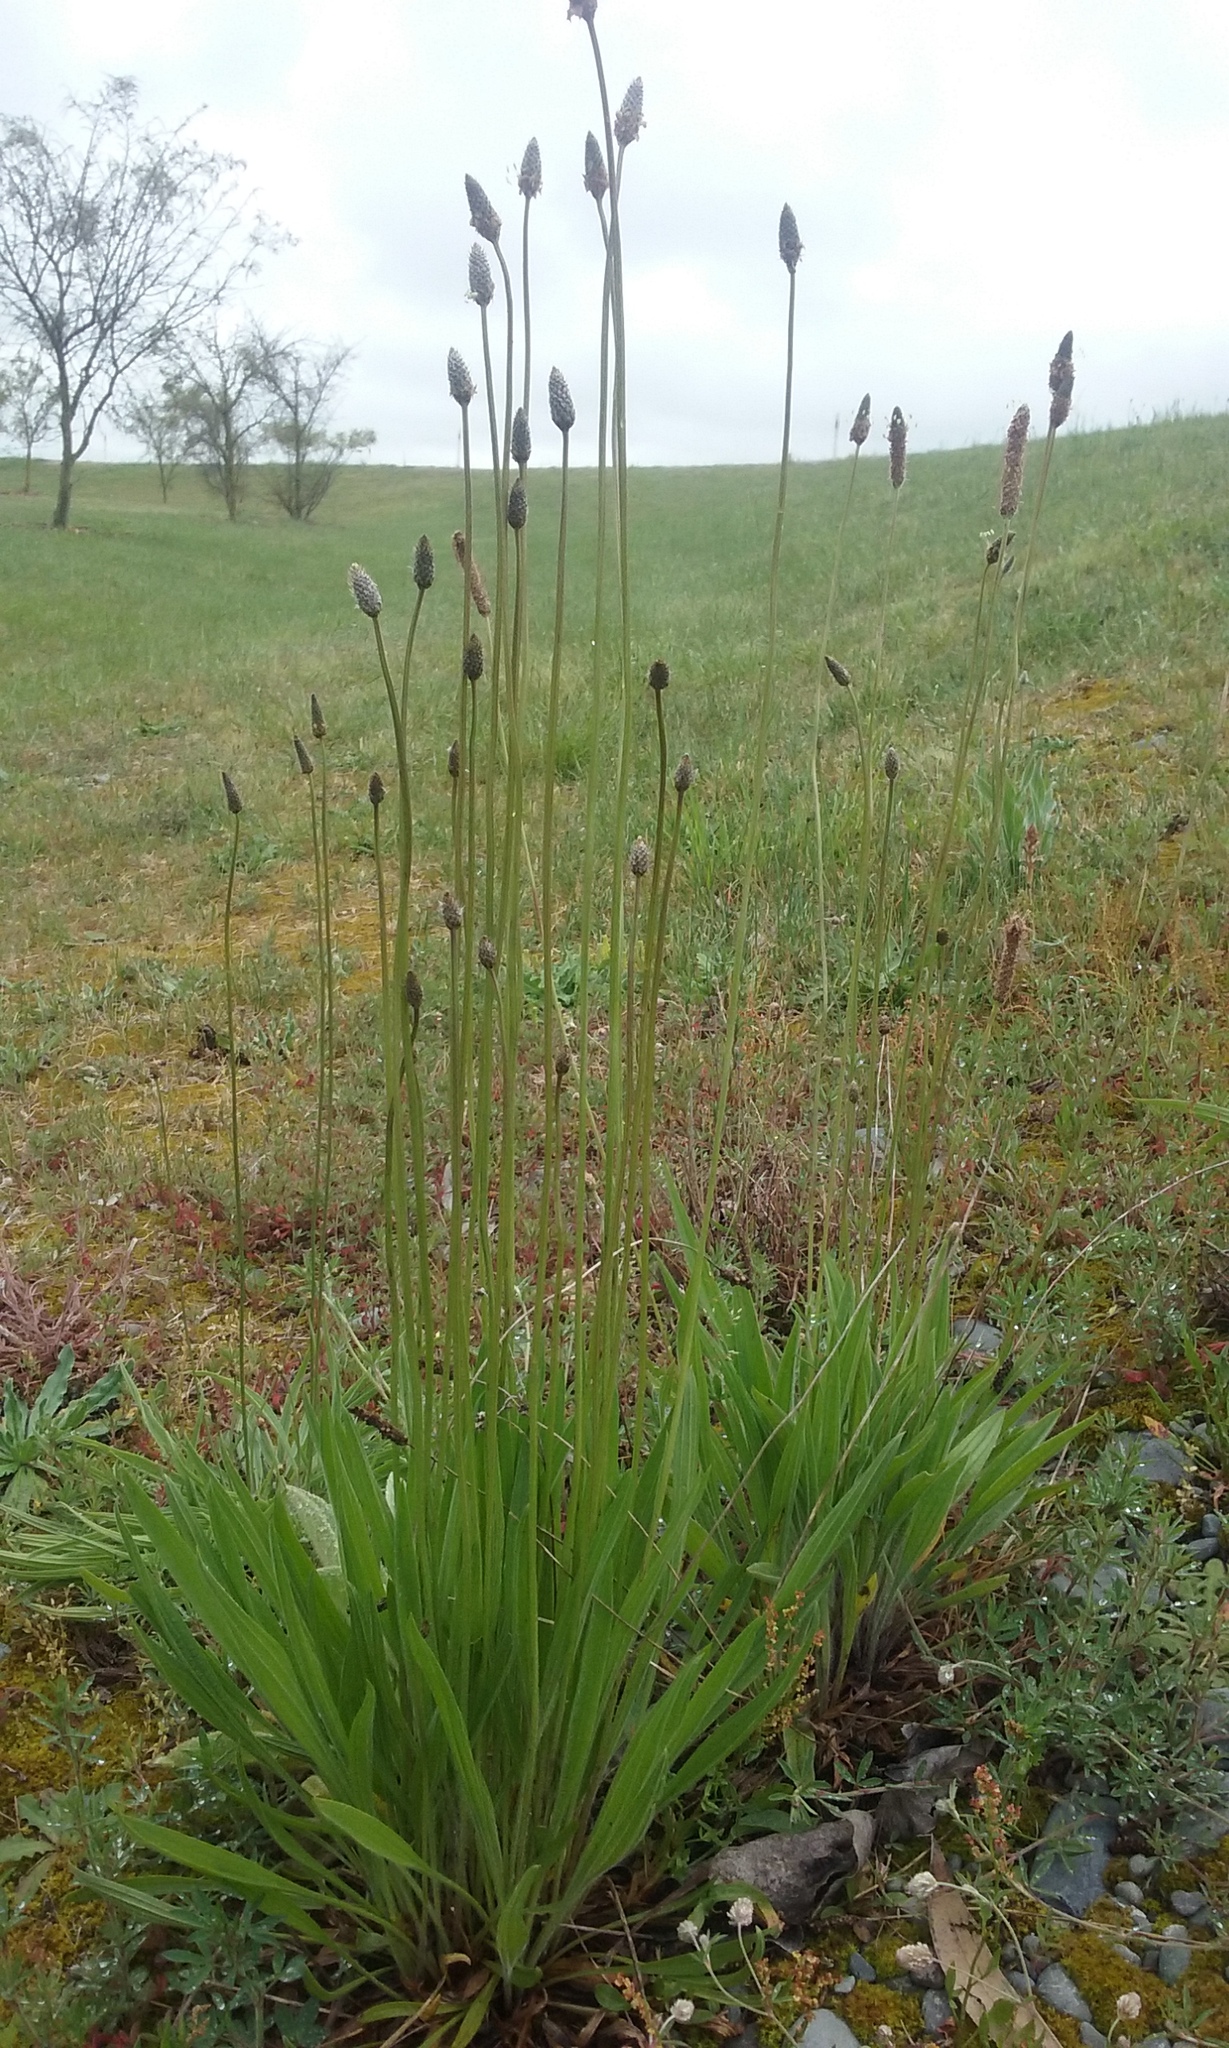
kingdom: Plantae
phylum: Tracheophyta
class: Magnoliopsida
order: Lamiales
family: Plantaginaceae
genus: Plantago
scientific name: Plantago lanceolata
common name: Ribwort plantain
